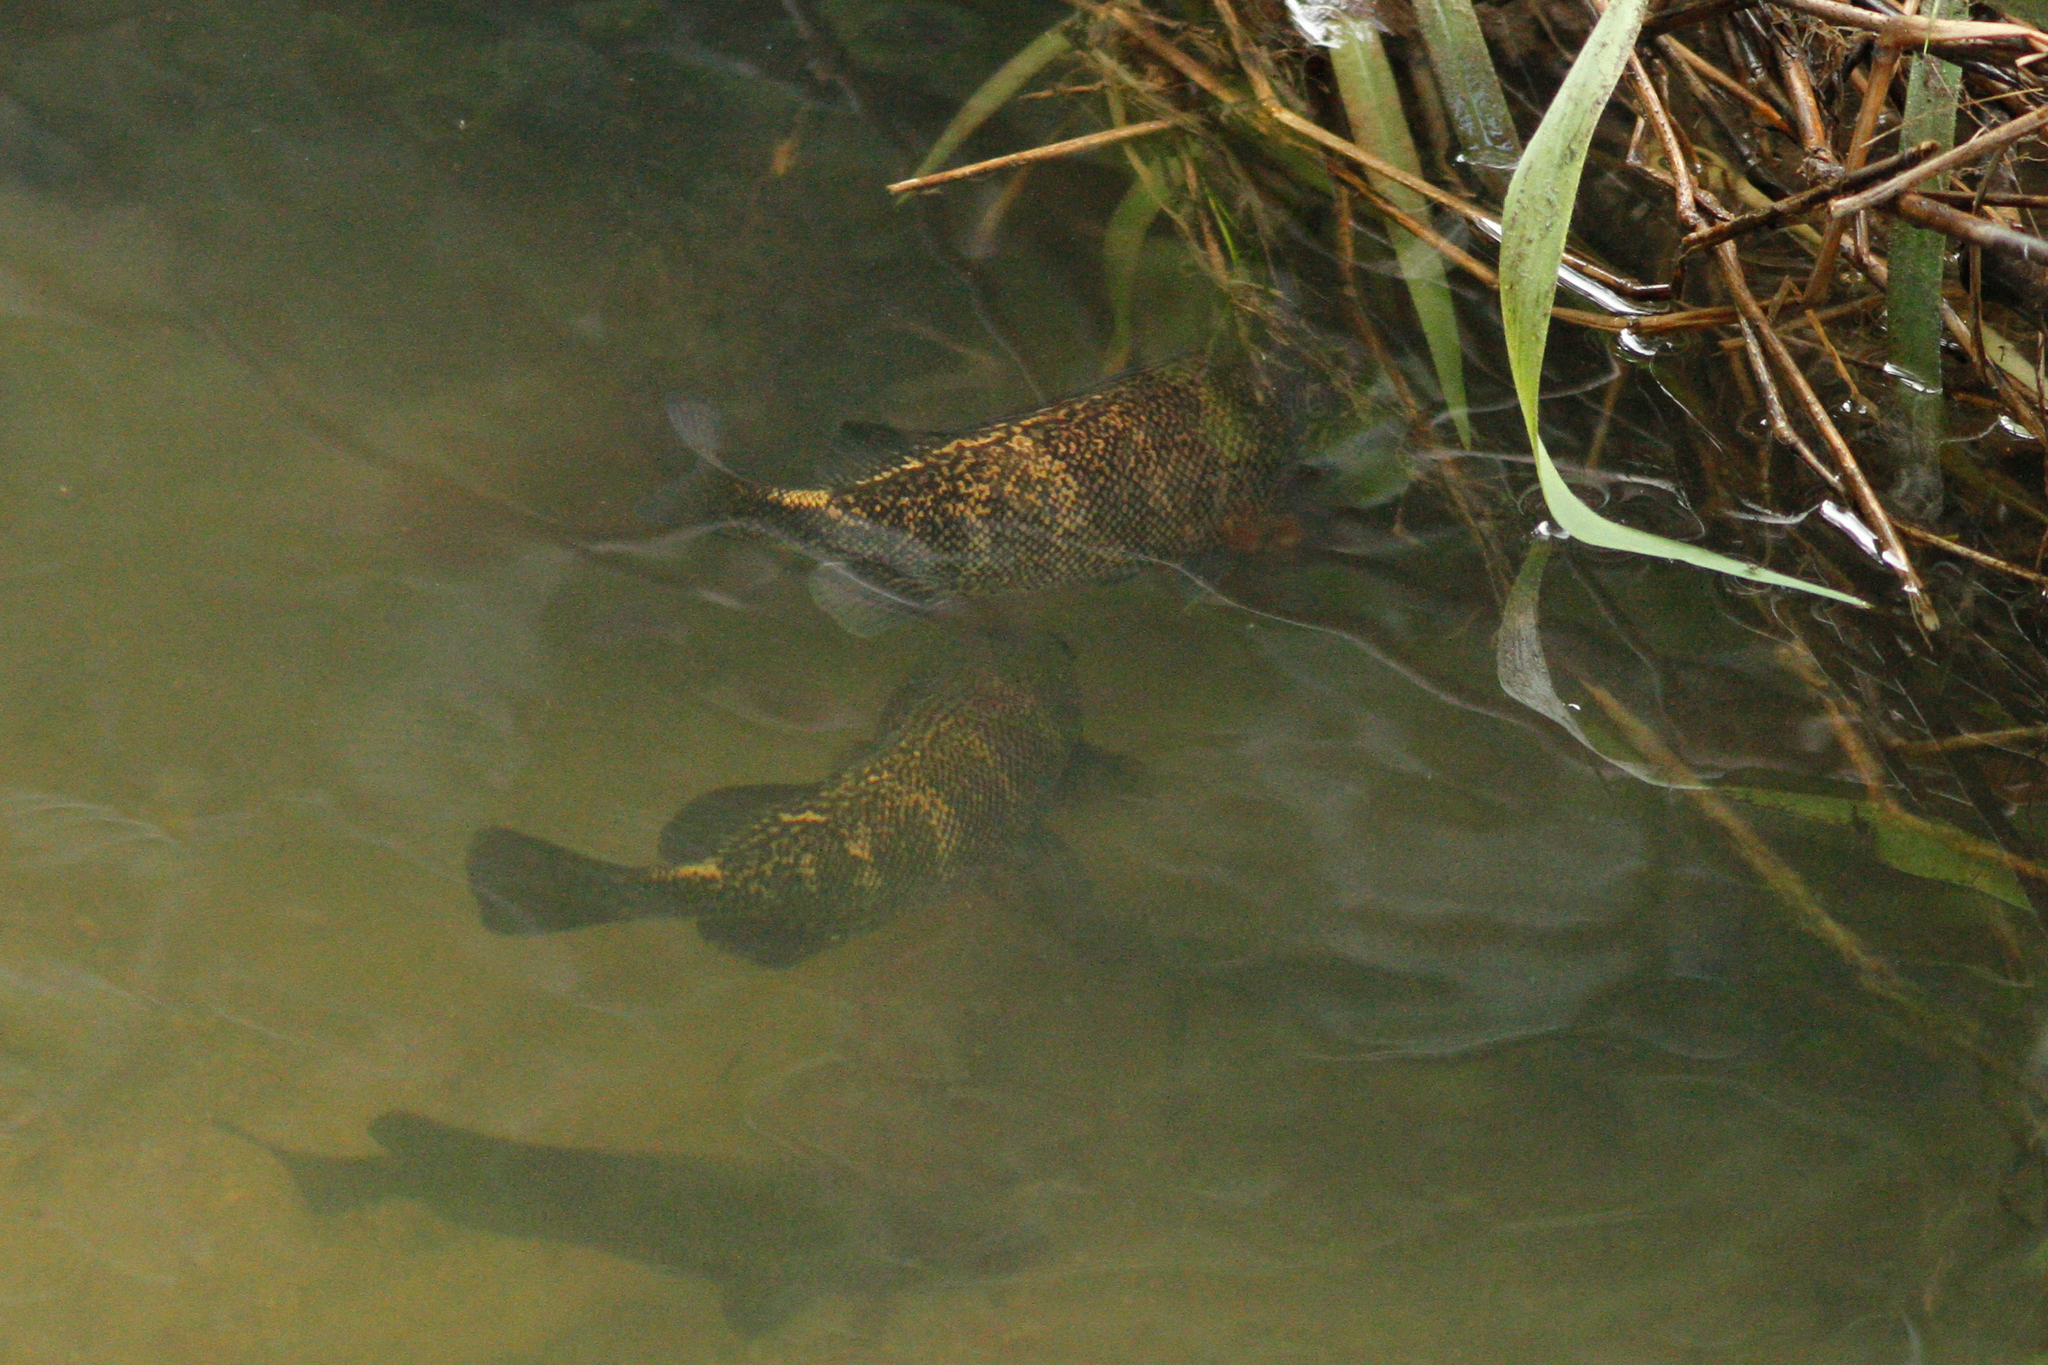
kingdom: Animalia
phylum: Chordata
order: Perciformes
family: Terapontidae
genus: Hephaestus
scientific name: Hephaestus carbo
